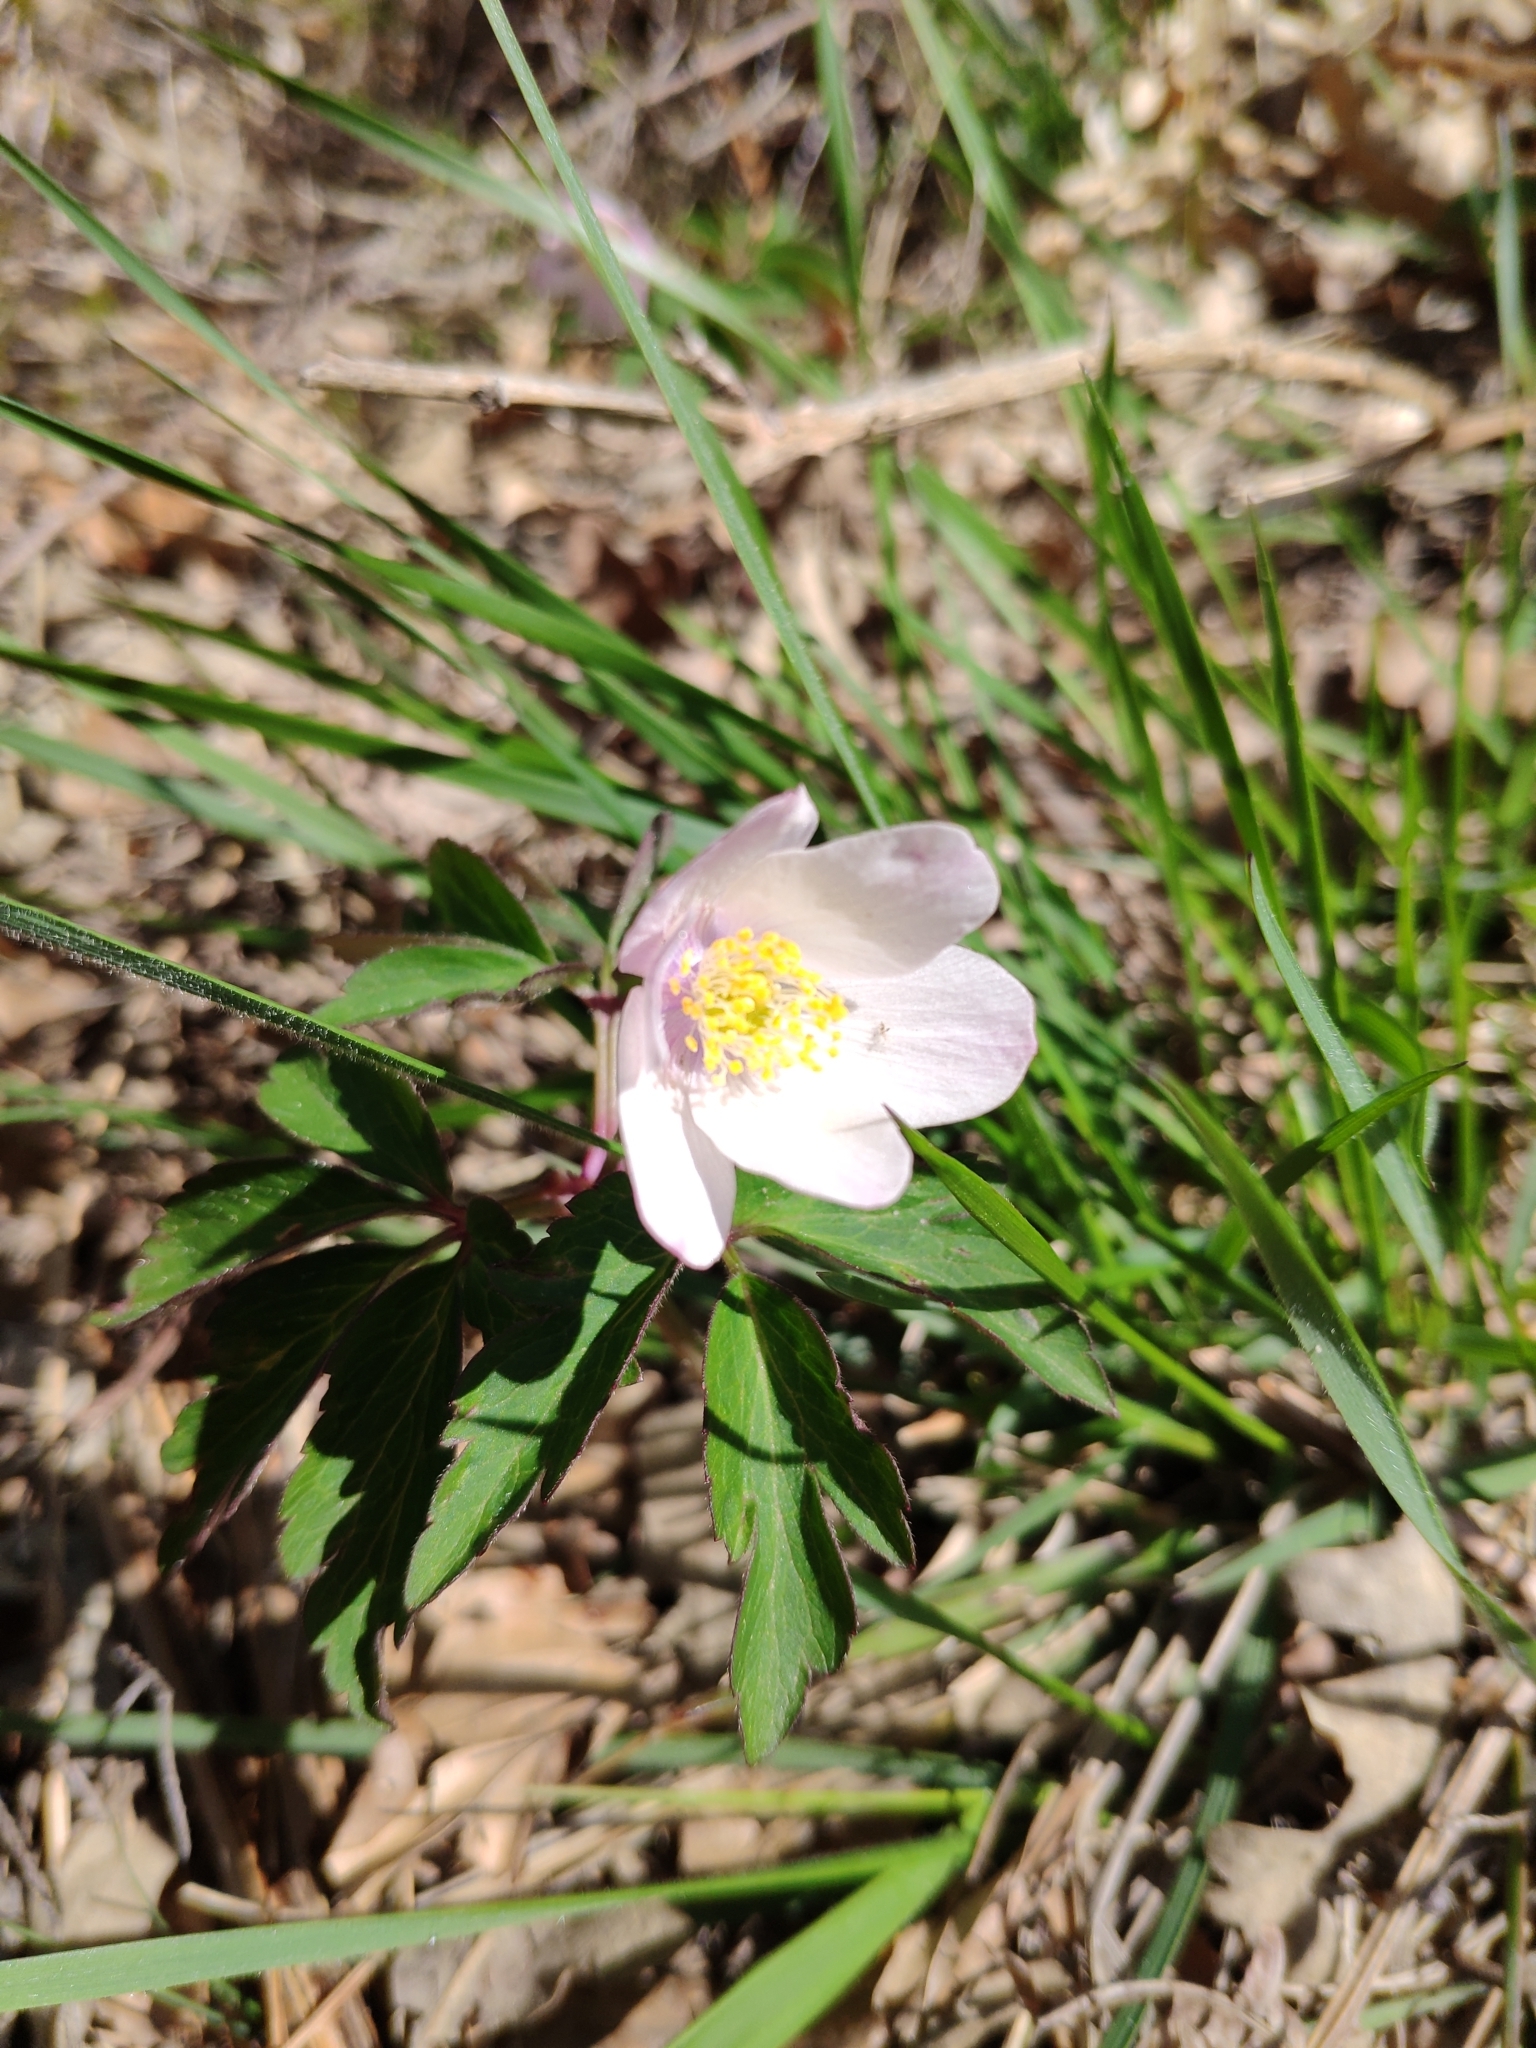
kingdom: Plantae
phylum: Tracheophyta
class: Magnoliopsida
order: Ranunculales
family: Ranunculaceae
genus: Anemone
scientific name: Anemone nemorosa
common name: Wood anemone
